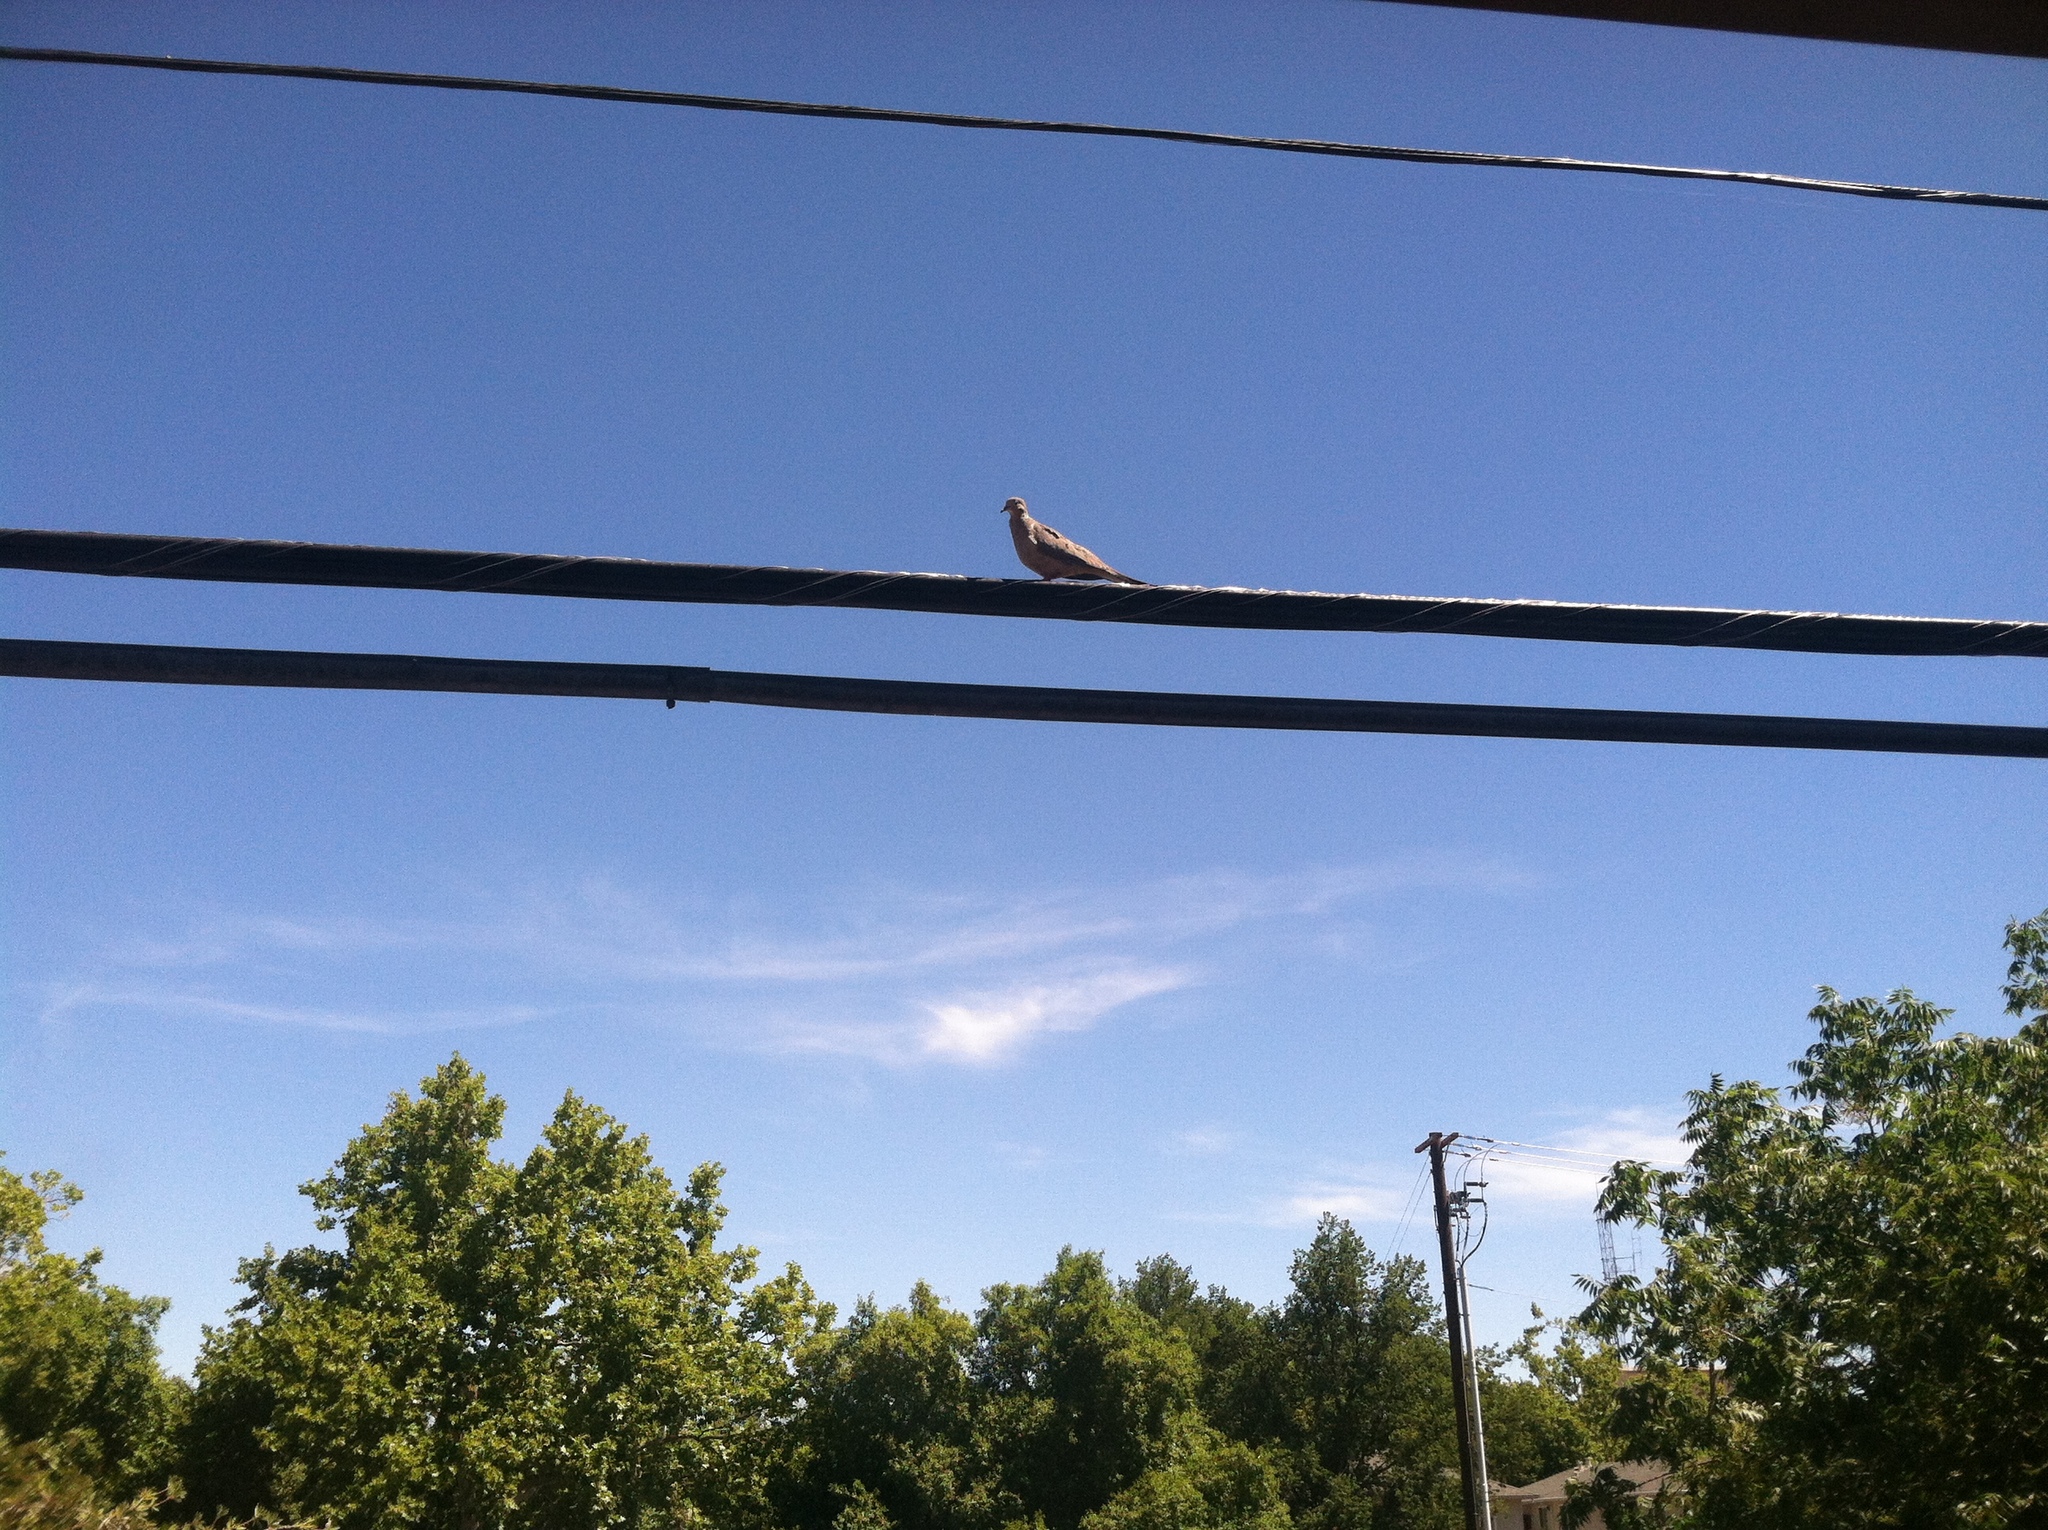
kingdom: Animalia
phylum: Chordata
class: Aves
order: Columbiformes
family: Columbidae
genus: Zenaida
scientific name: Zenaida macroura
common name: Mourning dove
